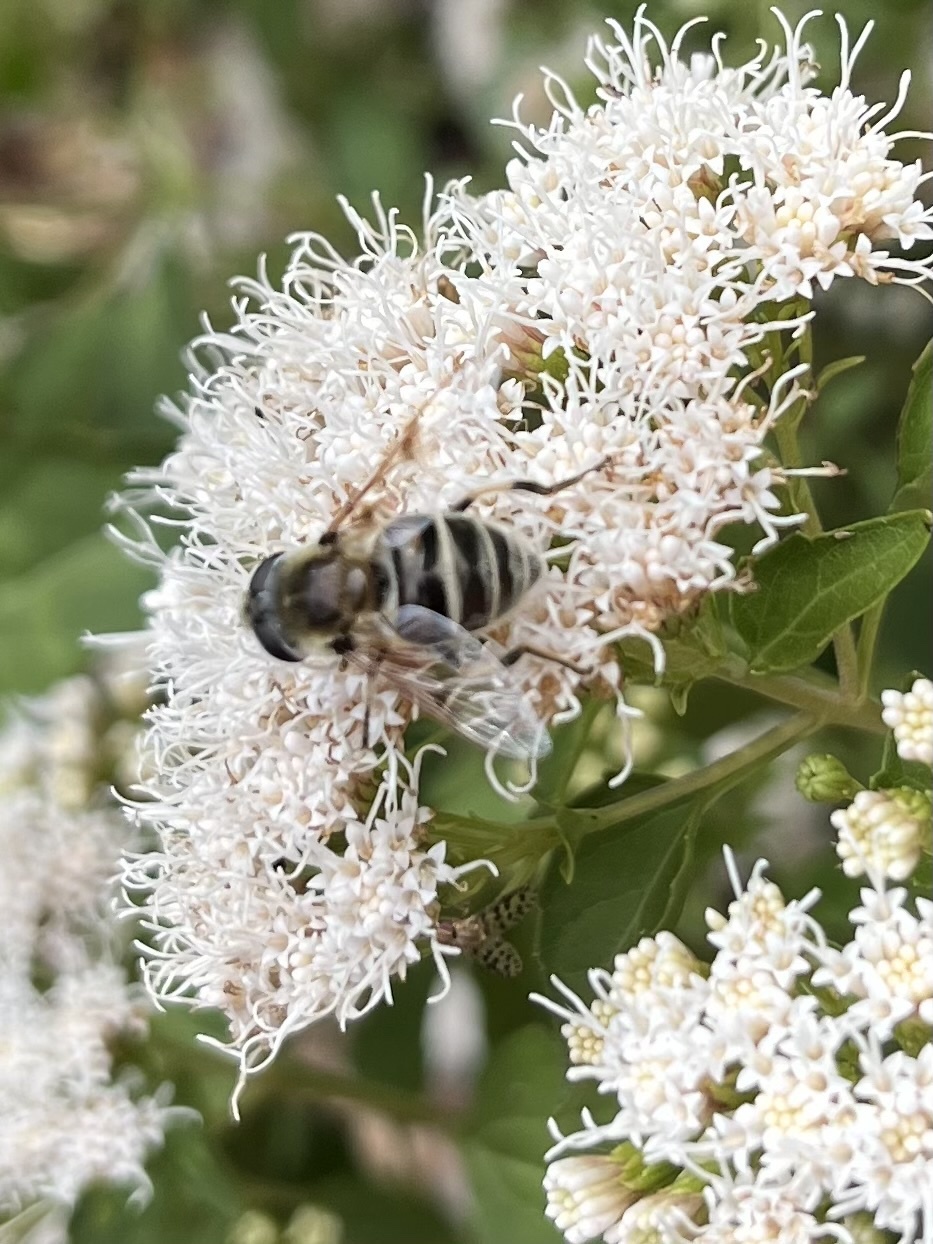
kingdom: Animalia
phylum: Arthropoda
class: Insecta
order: Diptera
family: Syrphidae
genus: Eristalis
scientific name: Eristalis stipator
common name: Yellow-shouldered drone fly
